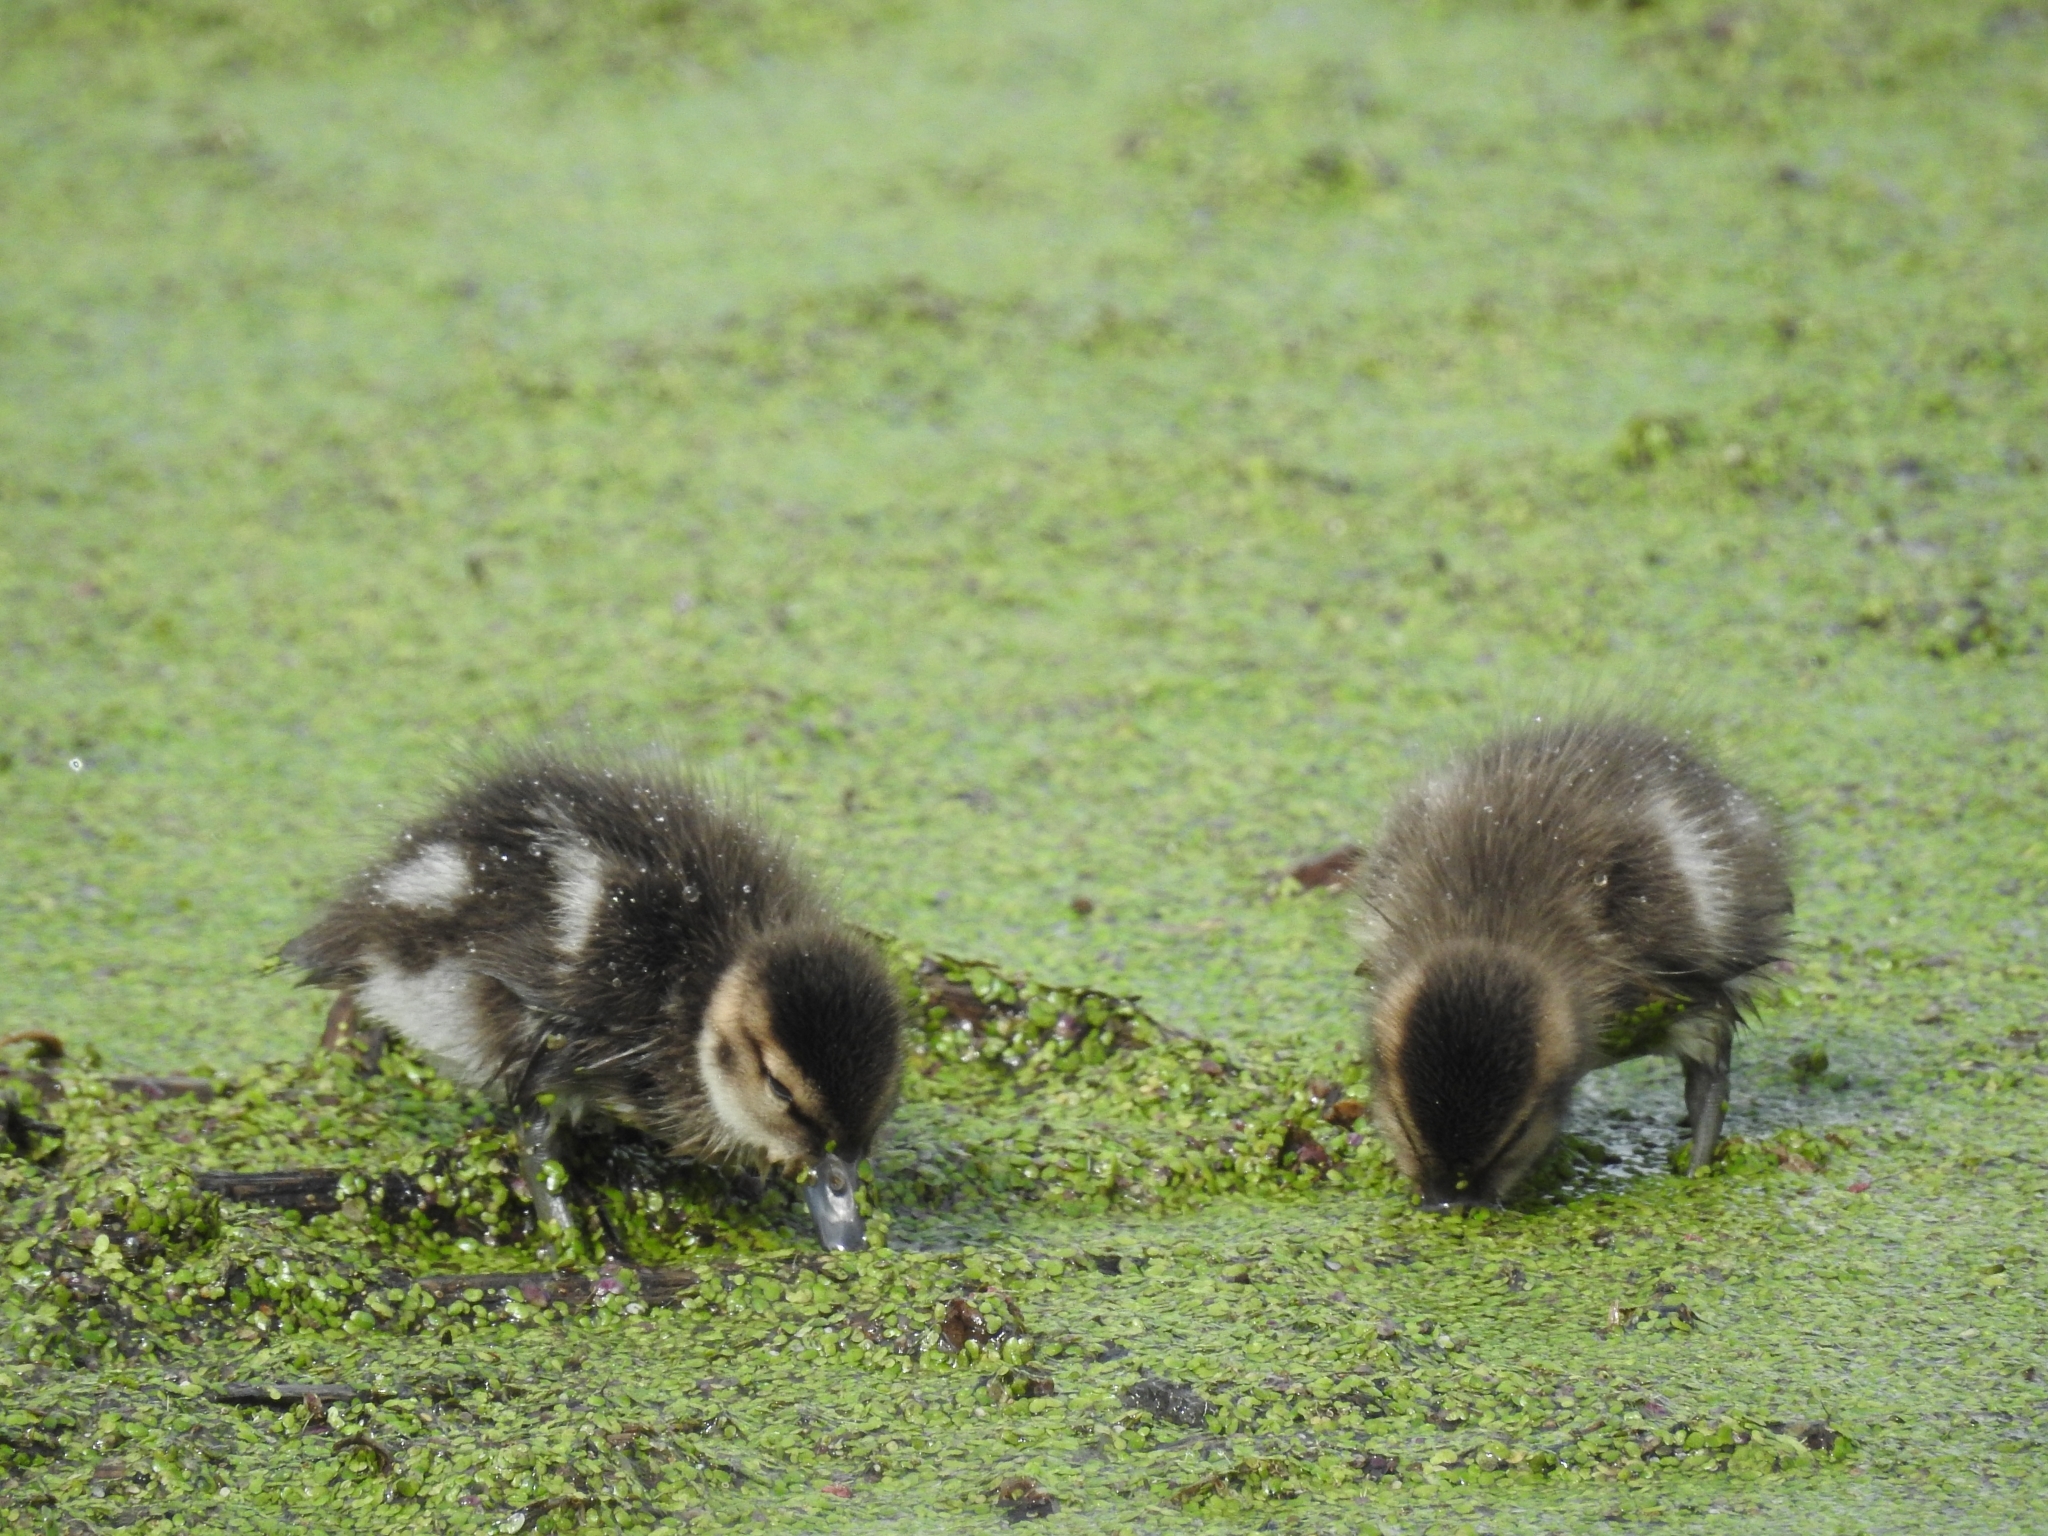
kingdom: Animalia
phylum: Chordata
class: Aves
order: Anseriformes
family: Anatidae
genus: Anas
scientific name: Anas
